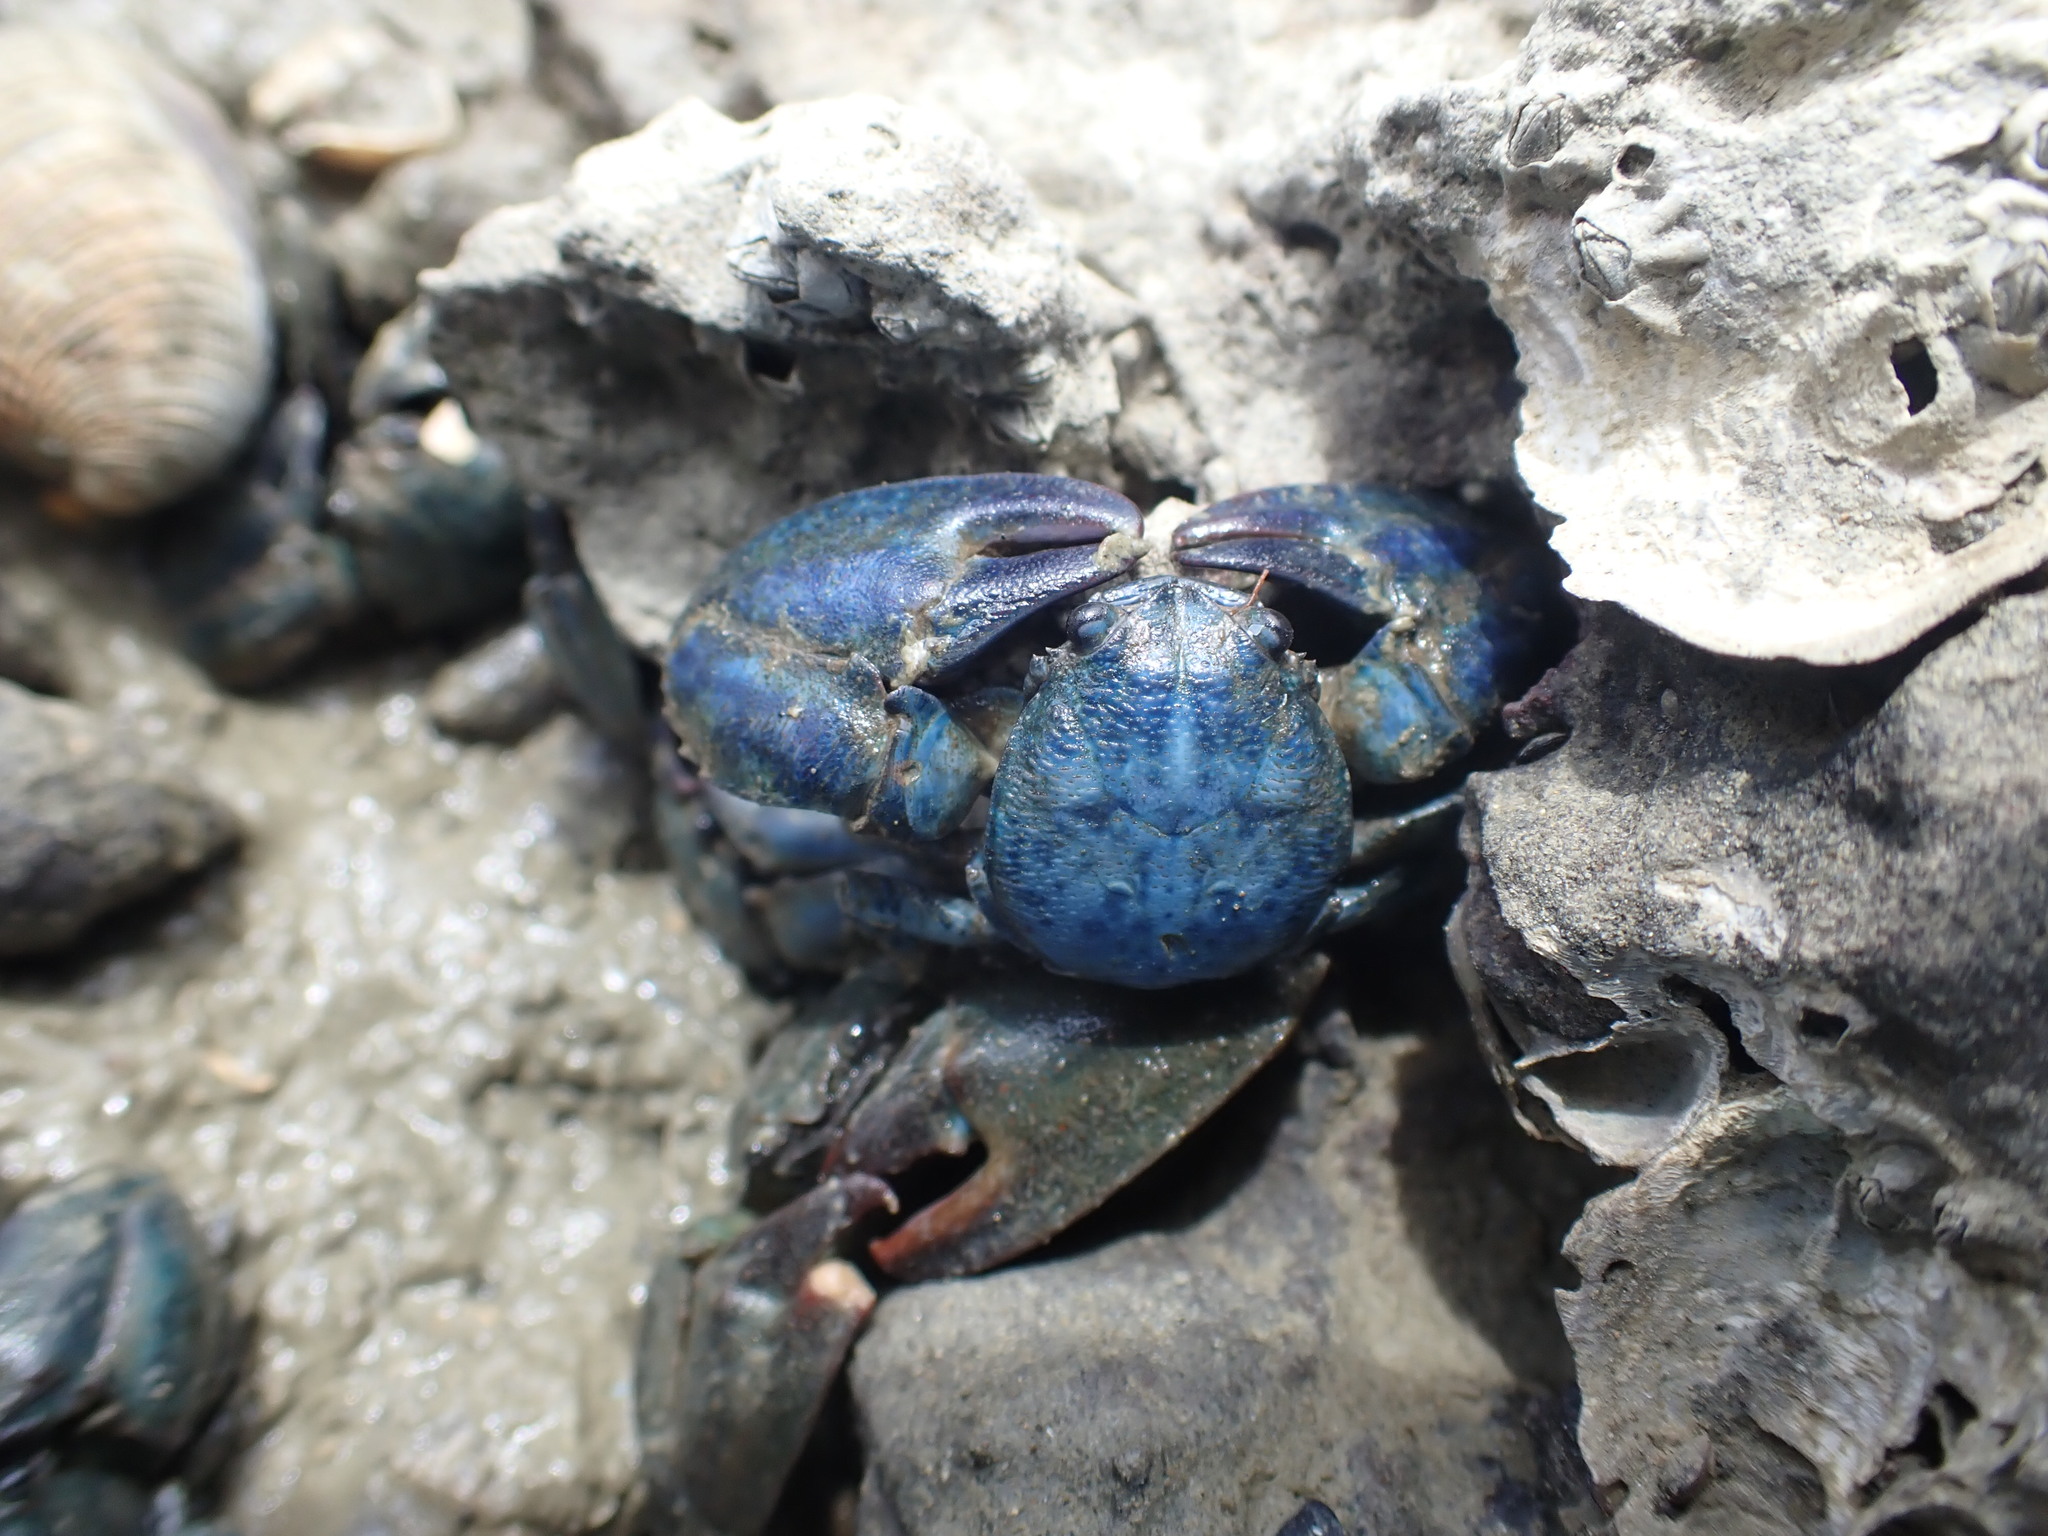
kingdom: Animalia
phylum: Arthropoda
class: Malacostraca
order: Decapoda
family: Porcellanidae
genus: Petrolisthes
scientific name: Petrolisthes elongatus
